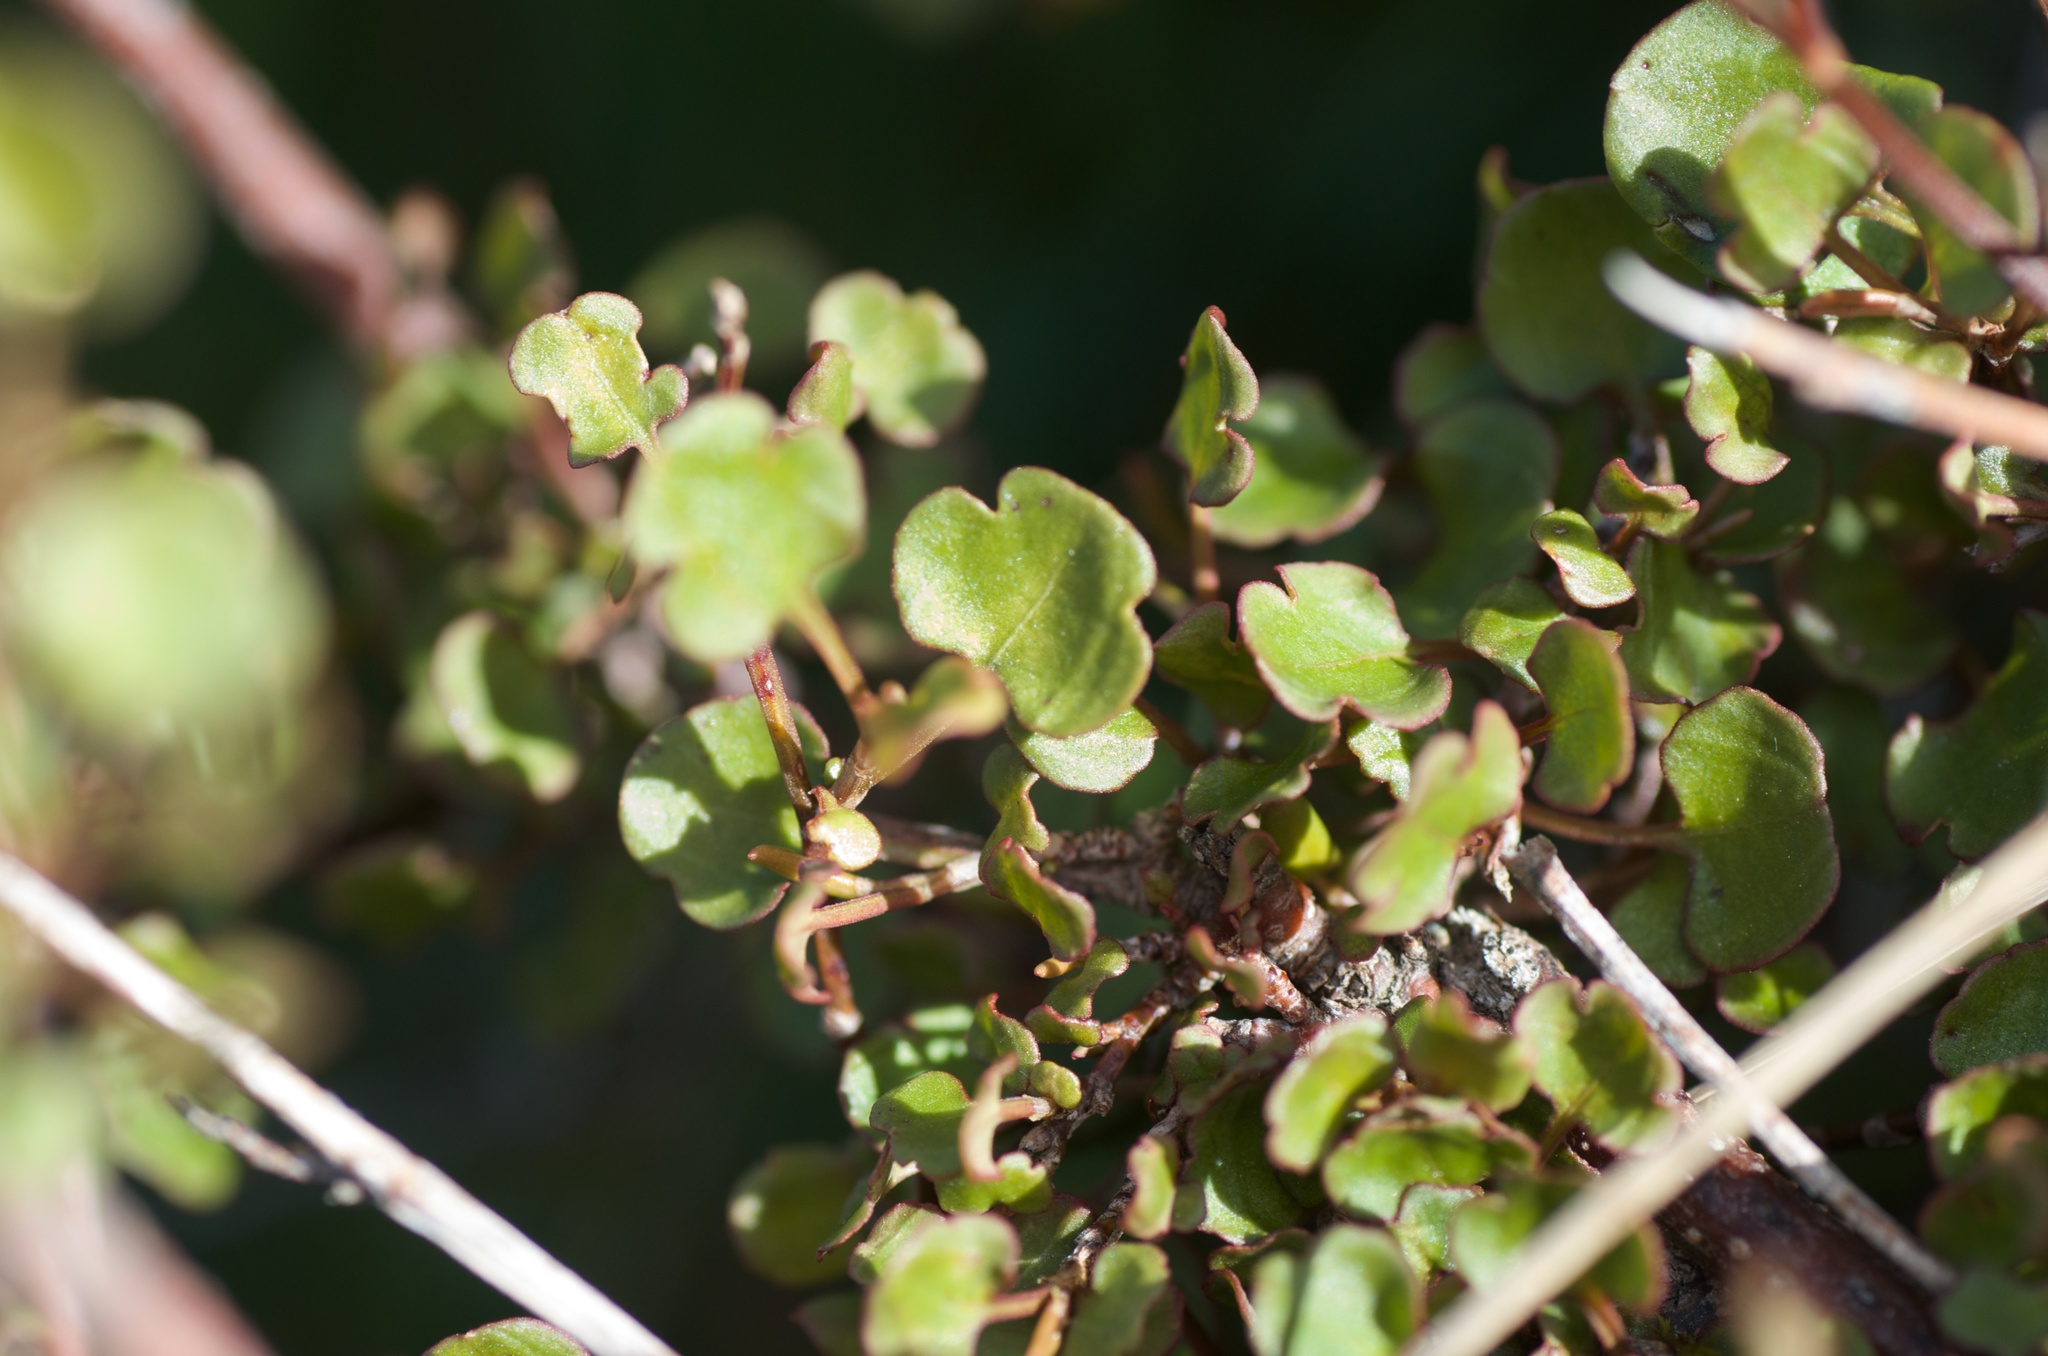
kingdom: Plantae
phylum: Tracheophyta
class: Magnoliopsida
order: Caryophyllales
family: Polygonaceae
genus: Muehlenbeckia
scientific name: Muehlenbeckia complexa
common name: Wireplant
